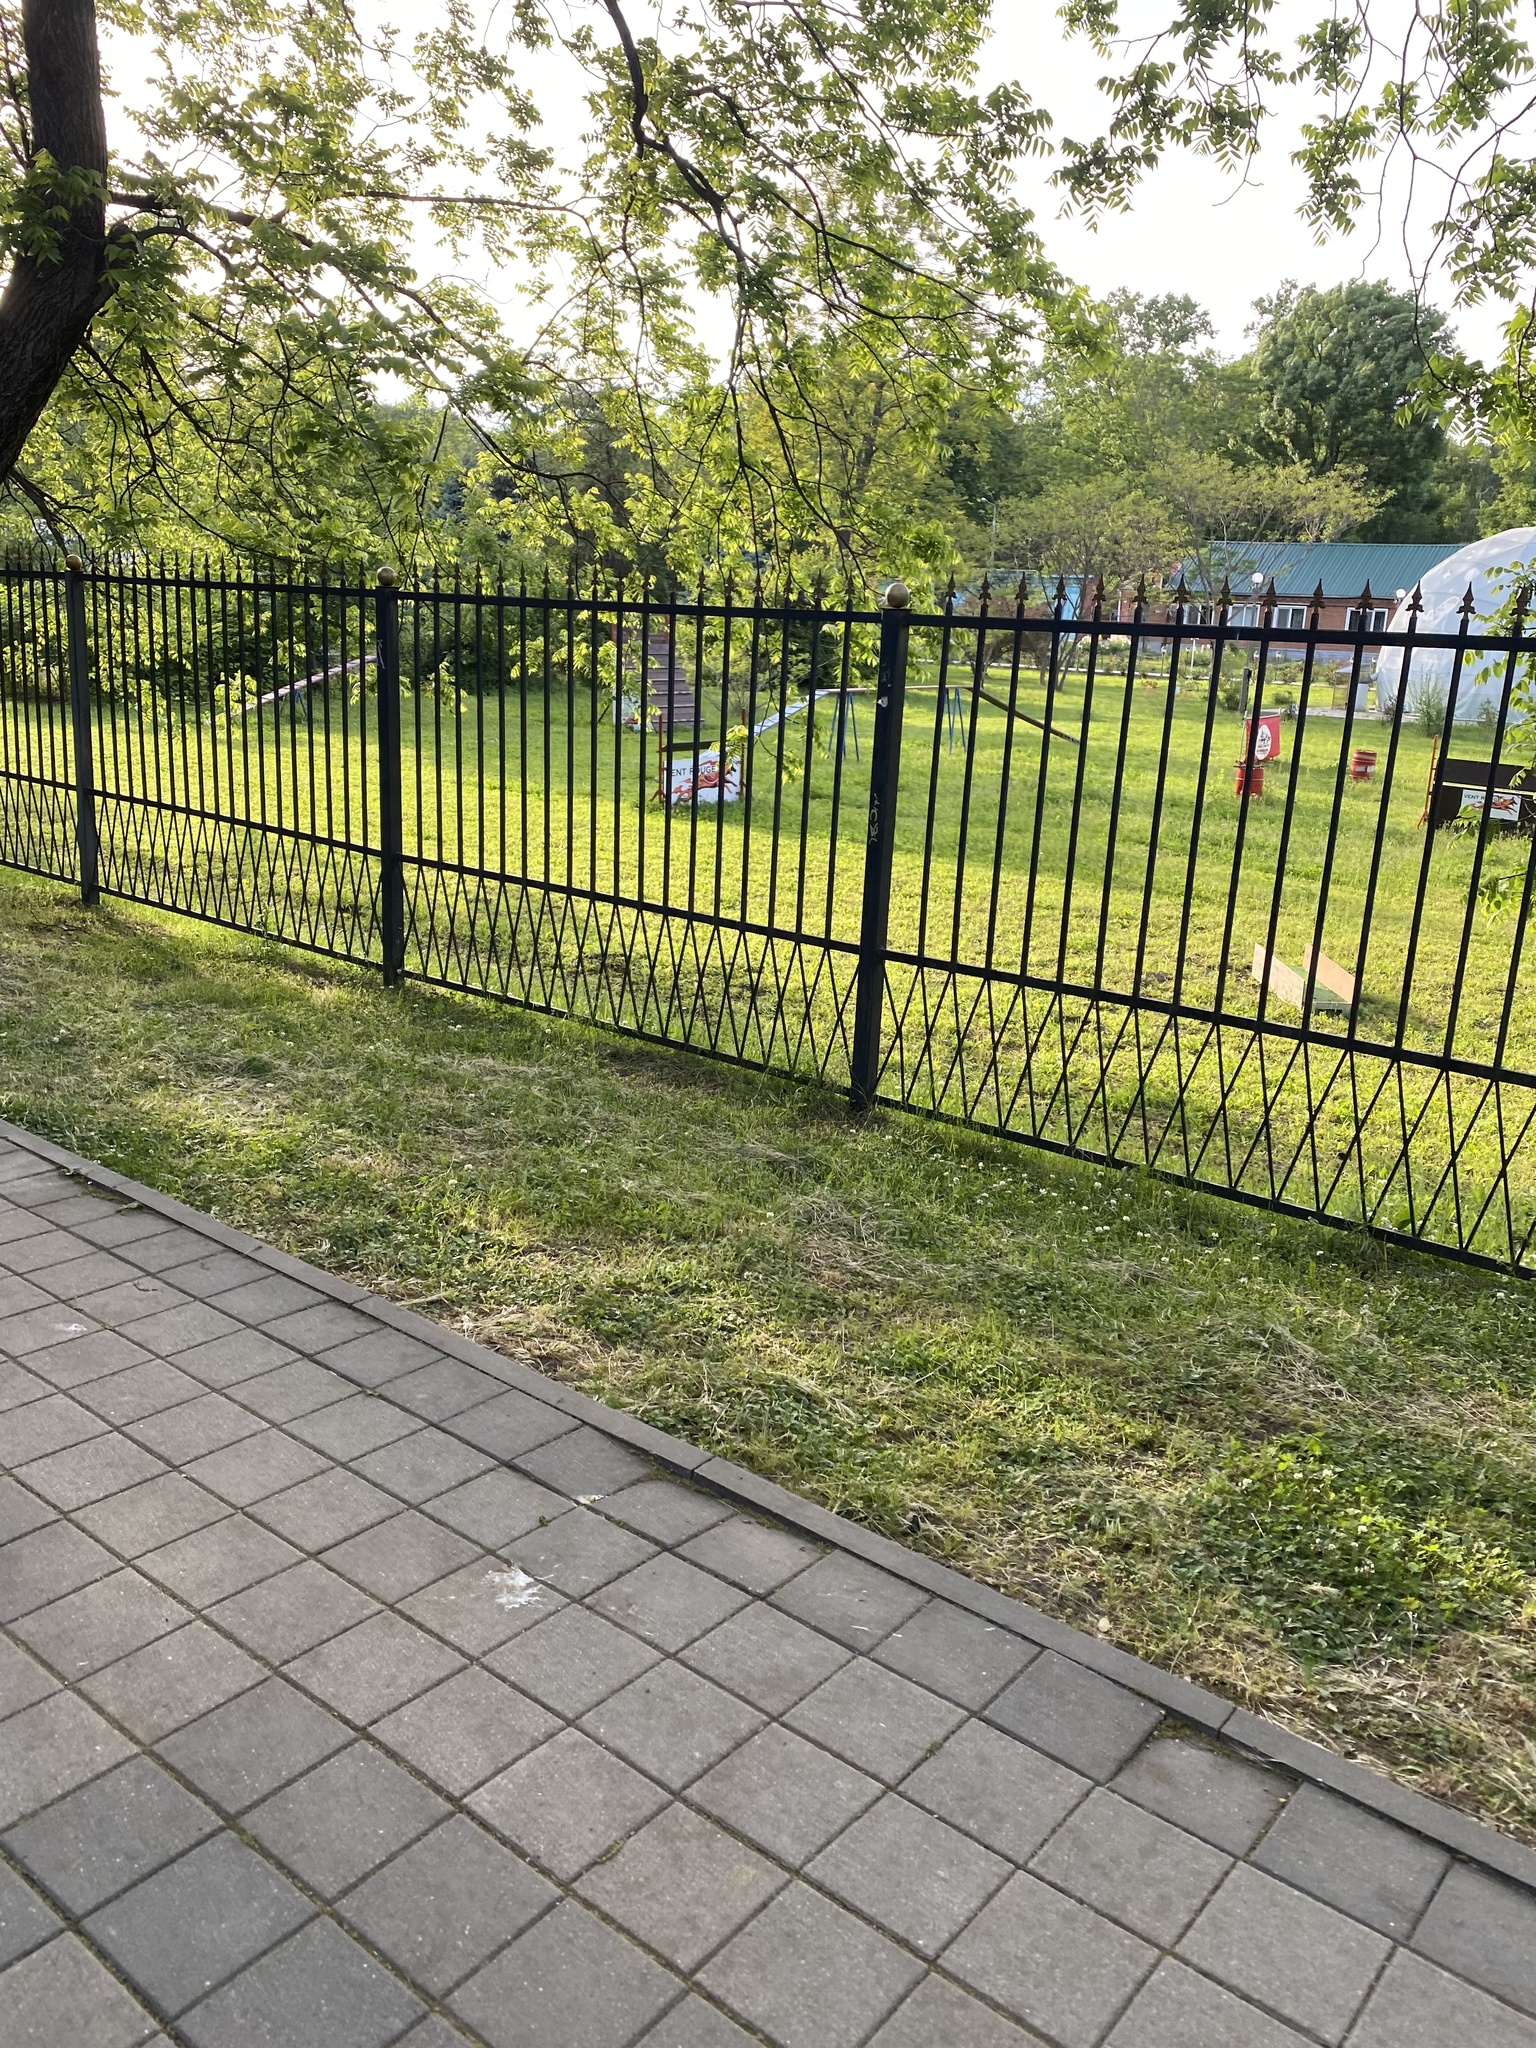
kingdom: Animalia
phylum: Chordata
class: Aves
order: Passeriformes
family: Muscicapidae
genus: Phoenicurus
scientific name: Phoenicurus ochruros
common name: Black redstart
